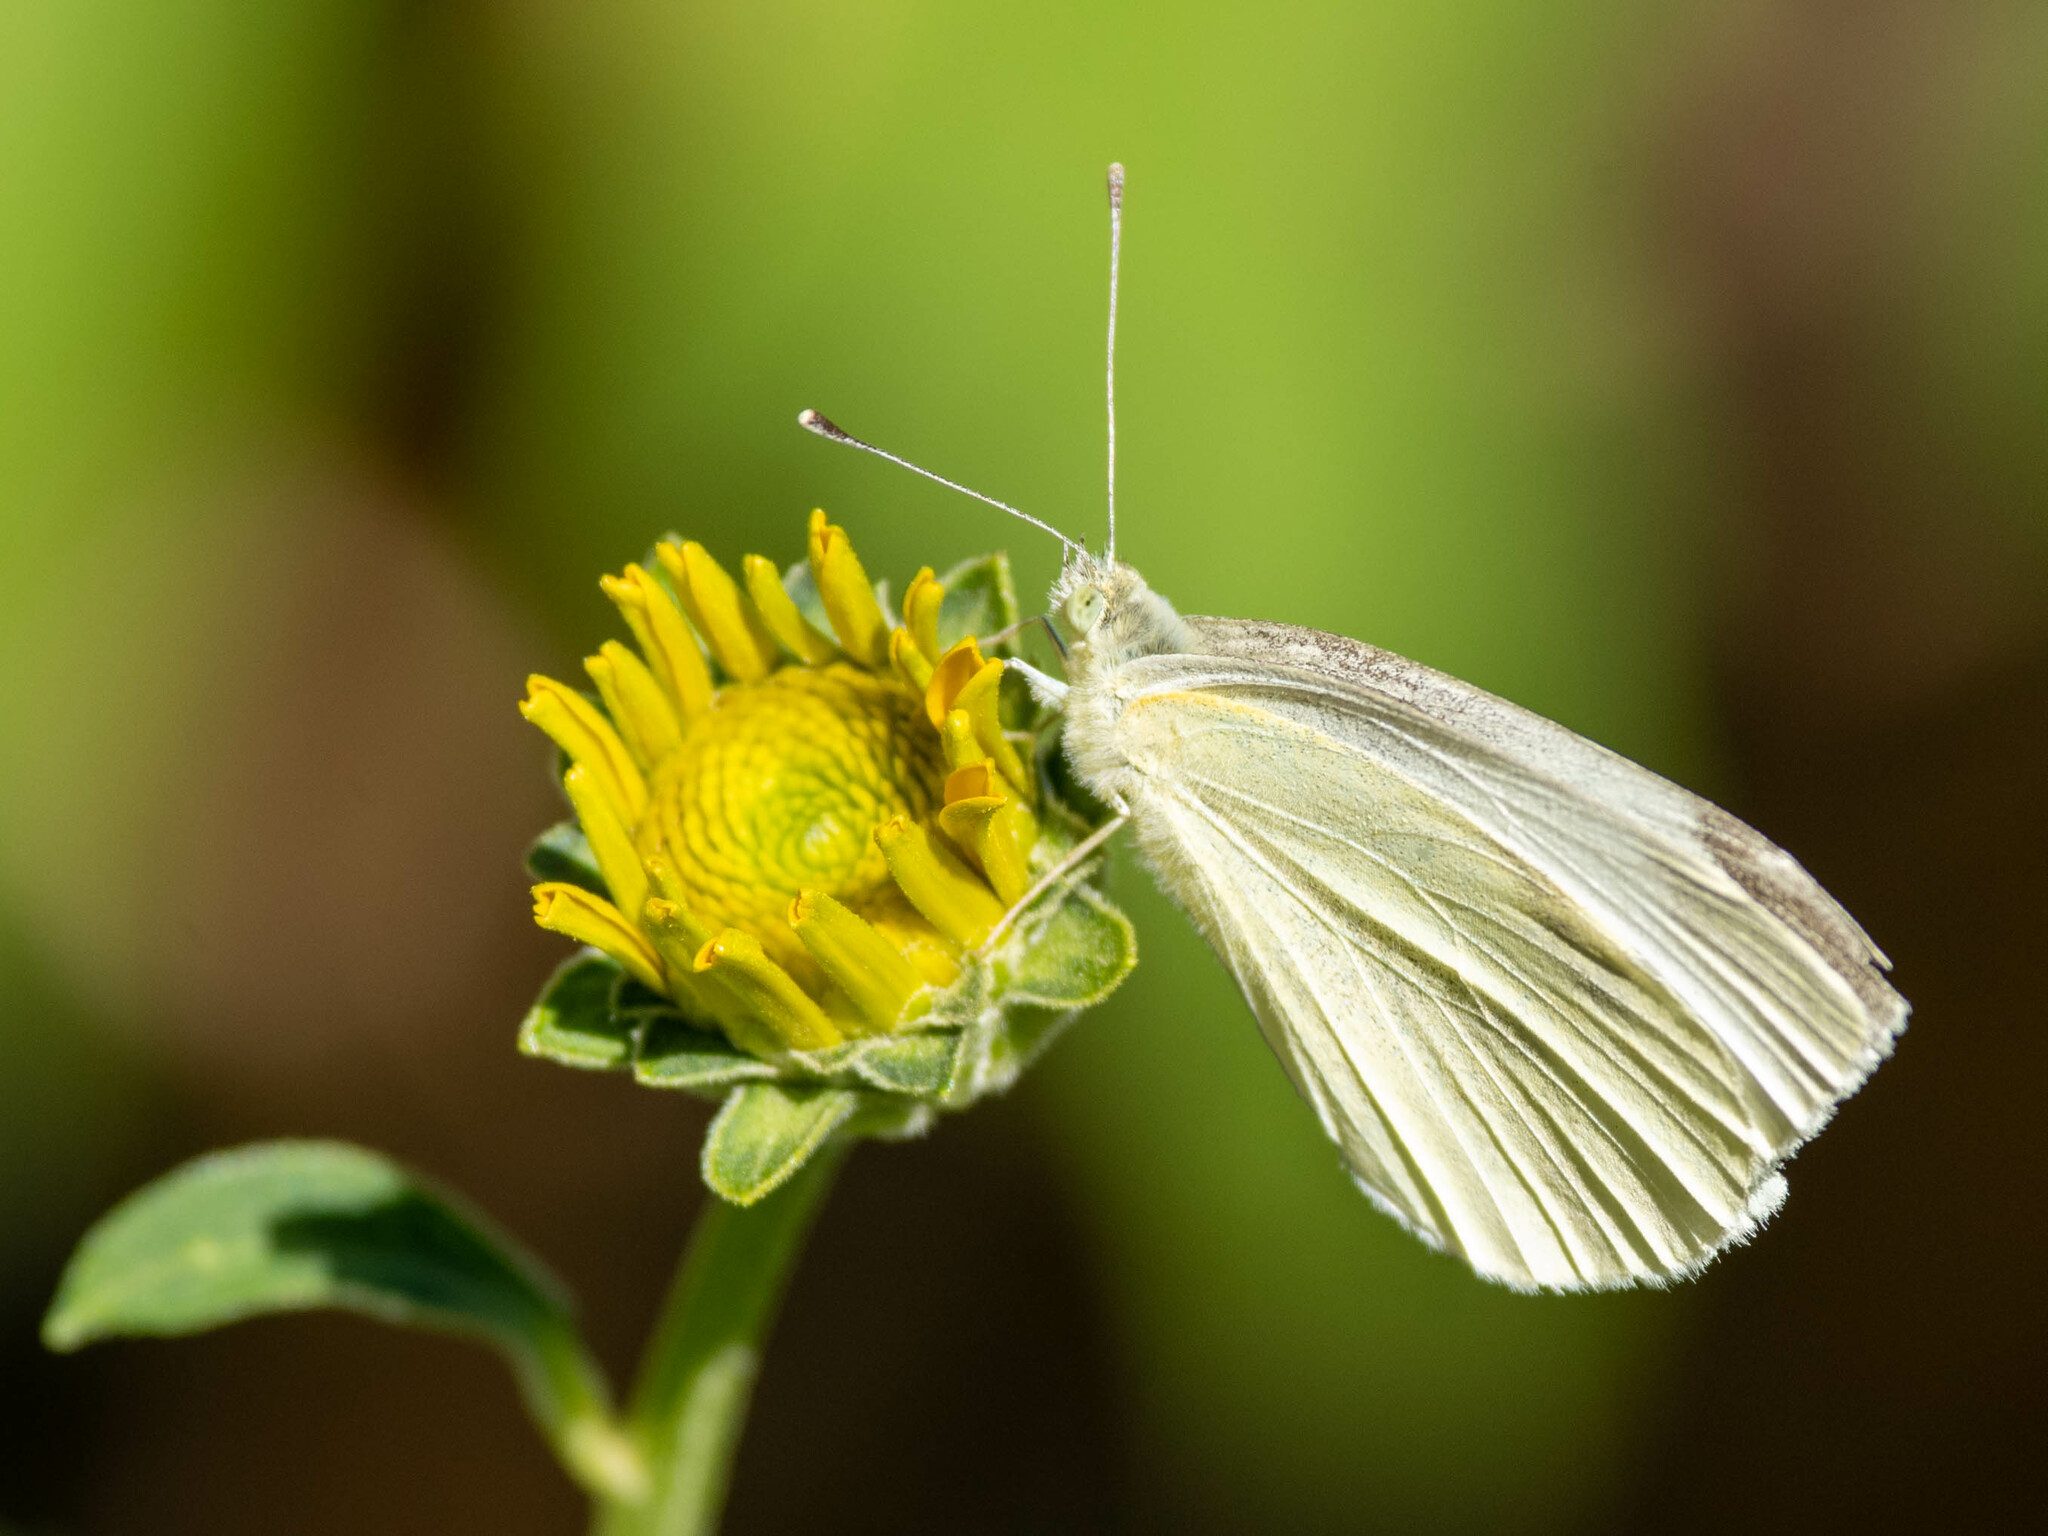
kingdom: Animalia
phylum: Arthropoda
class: Insecta
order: Lepidoptera
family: Pieridae
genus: Pieris
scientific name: Pieris rapae
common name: Small white
